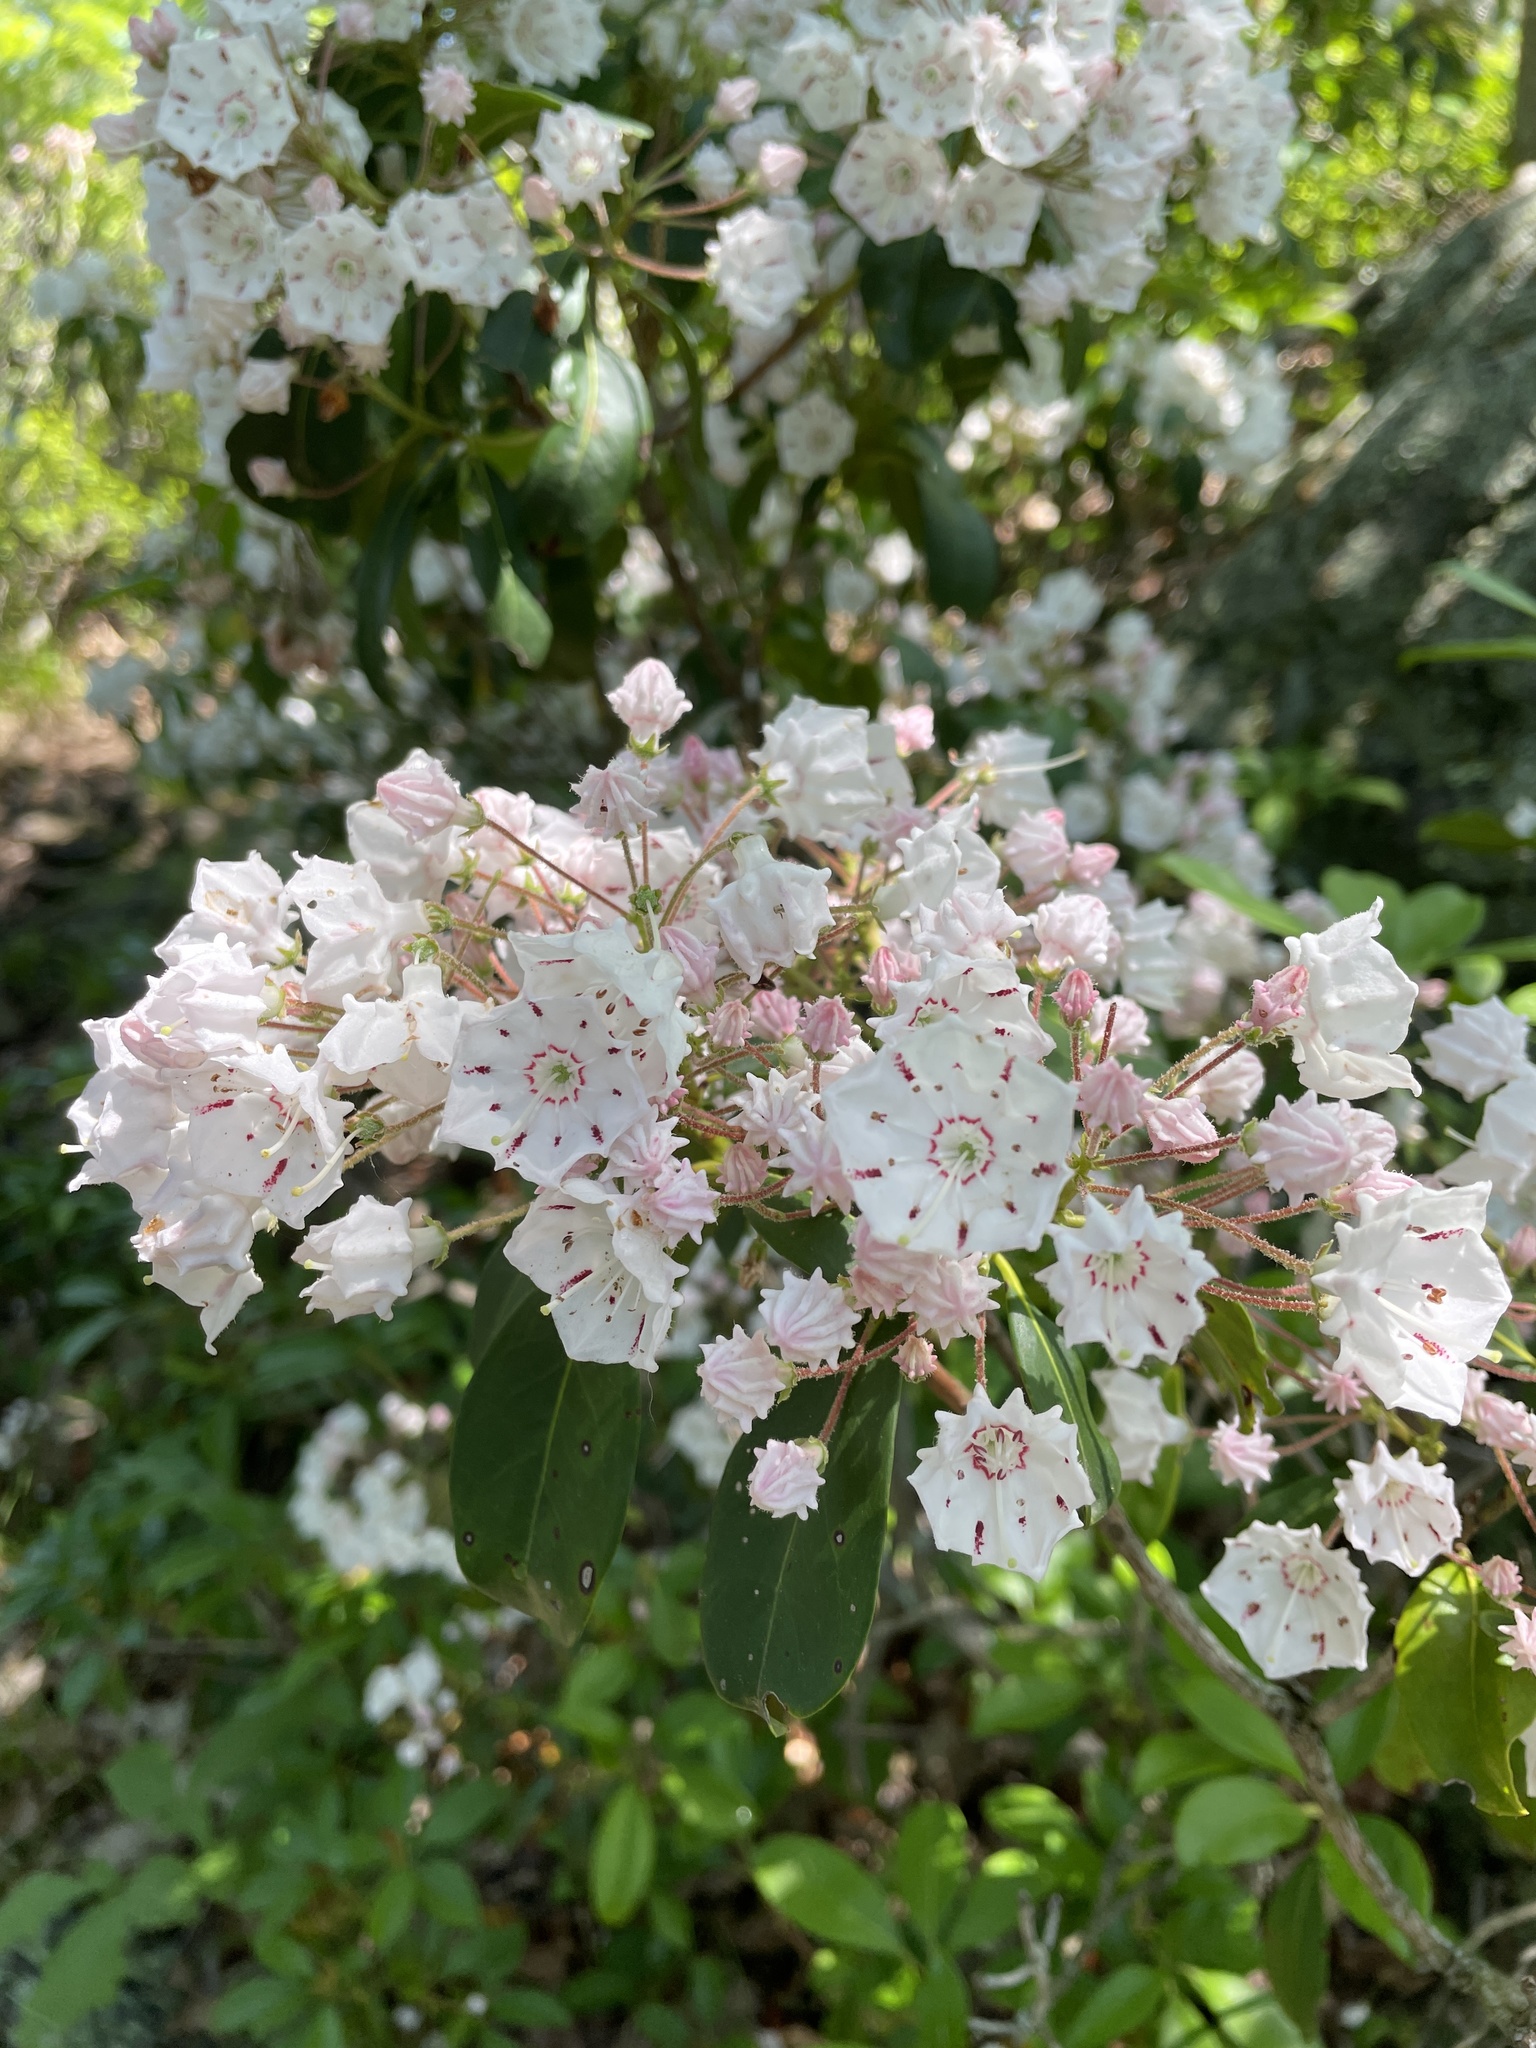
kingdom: Plantae
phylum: Tracheophyta
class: Magnoliopsida
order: Ericales
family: Ericaceae
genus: Kalmia
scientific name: Kalmia latifolia
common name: Mountain-laurel
